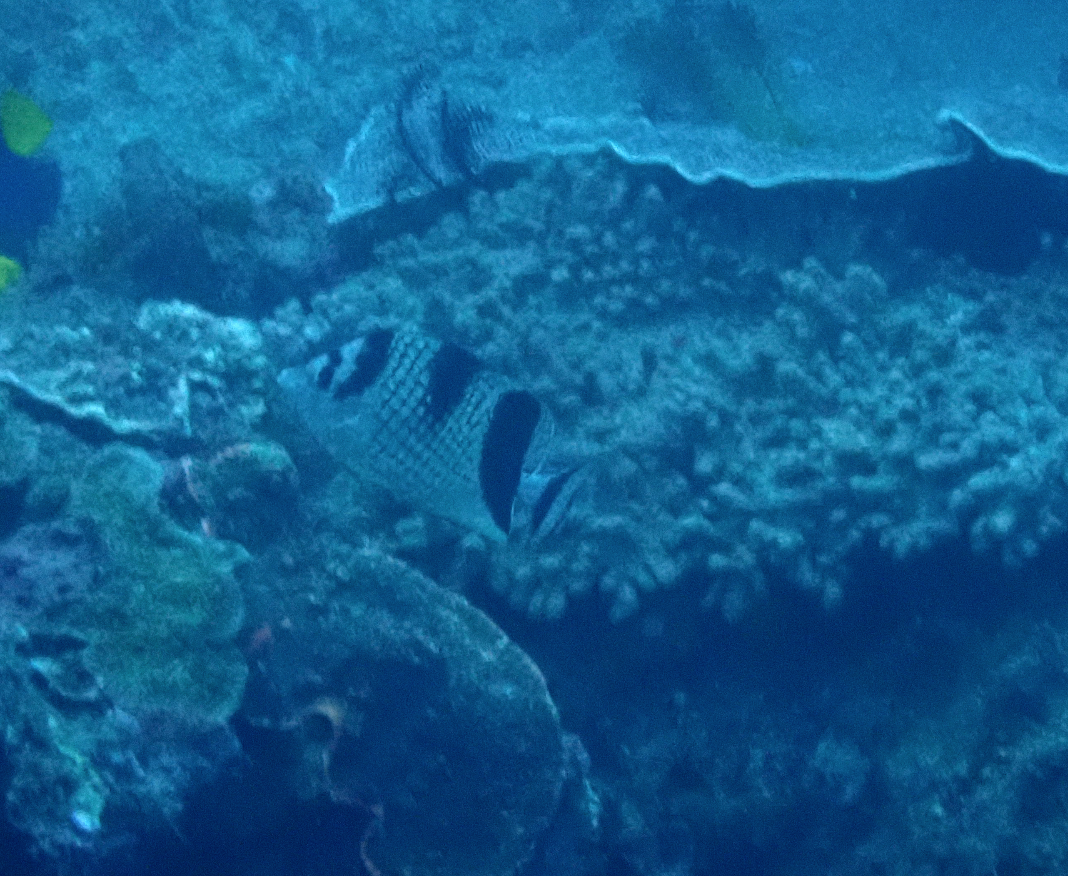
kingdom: Animalia
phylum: Chordata
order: Perciformes
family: Chaetodontidae
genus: Chaetodon
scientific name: Chaetodon argentatus
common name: Asian butterflyfish
